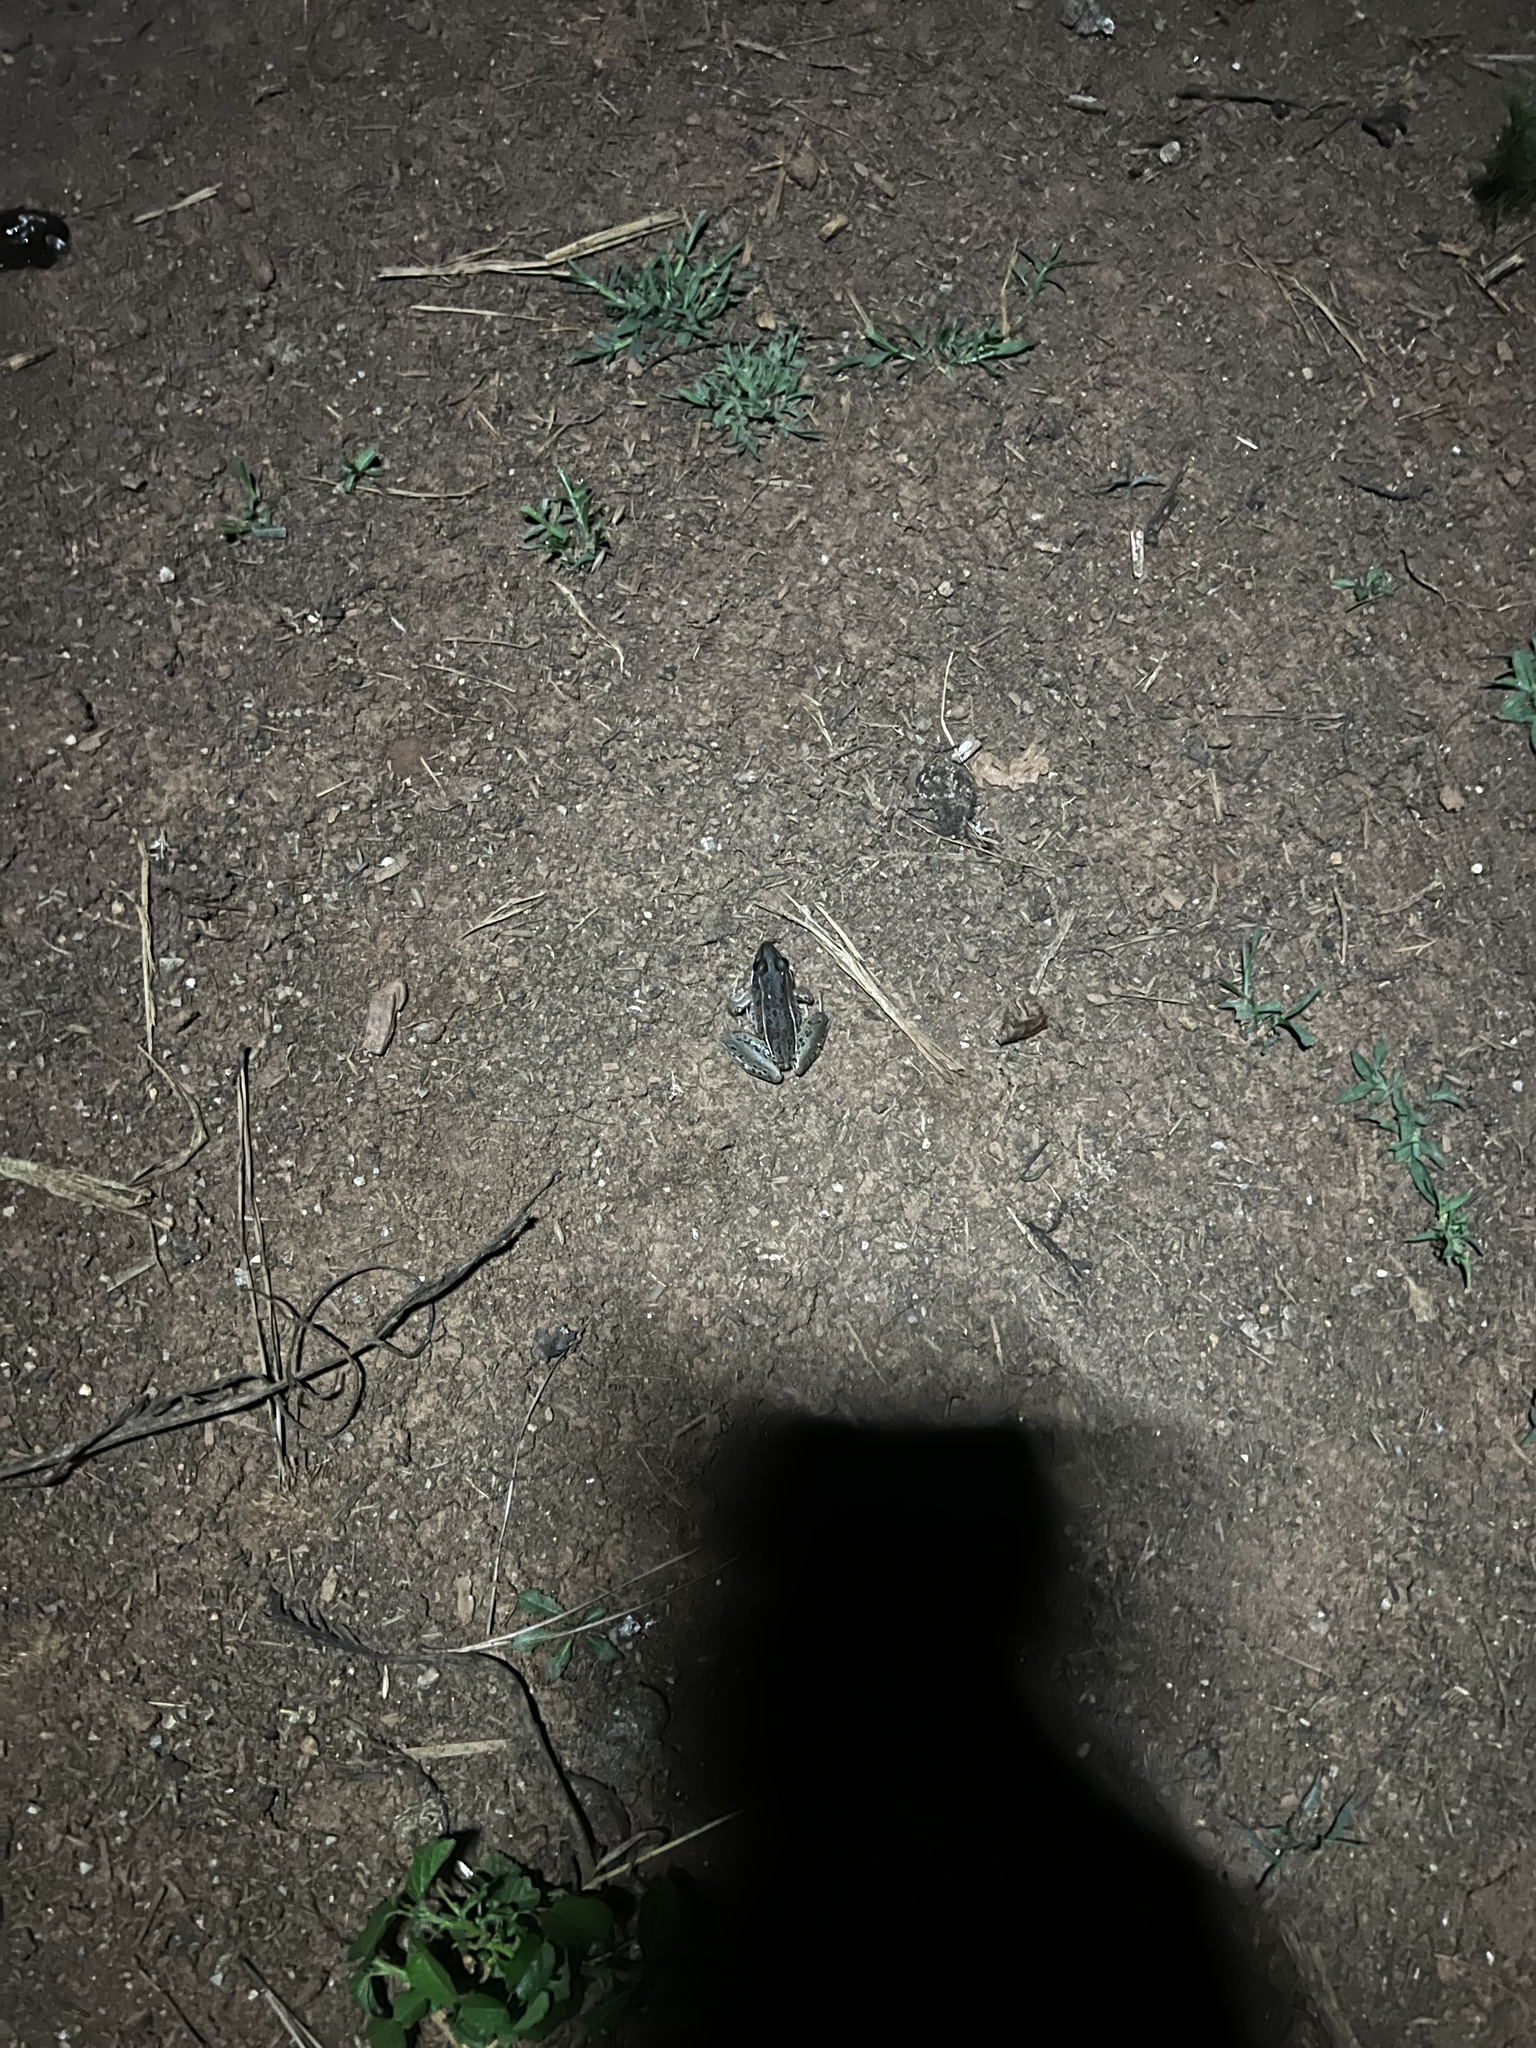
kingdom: Animalia
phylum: Chordata
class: Amphibia
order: Anura
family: Ranidae
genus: Lithobates
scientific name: Lithobates sphenocephalus
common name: Southern leopard frog
